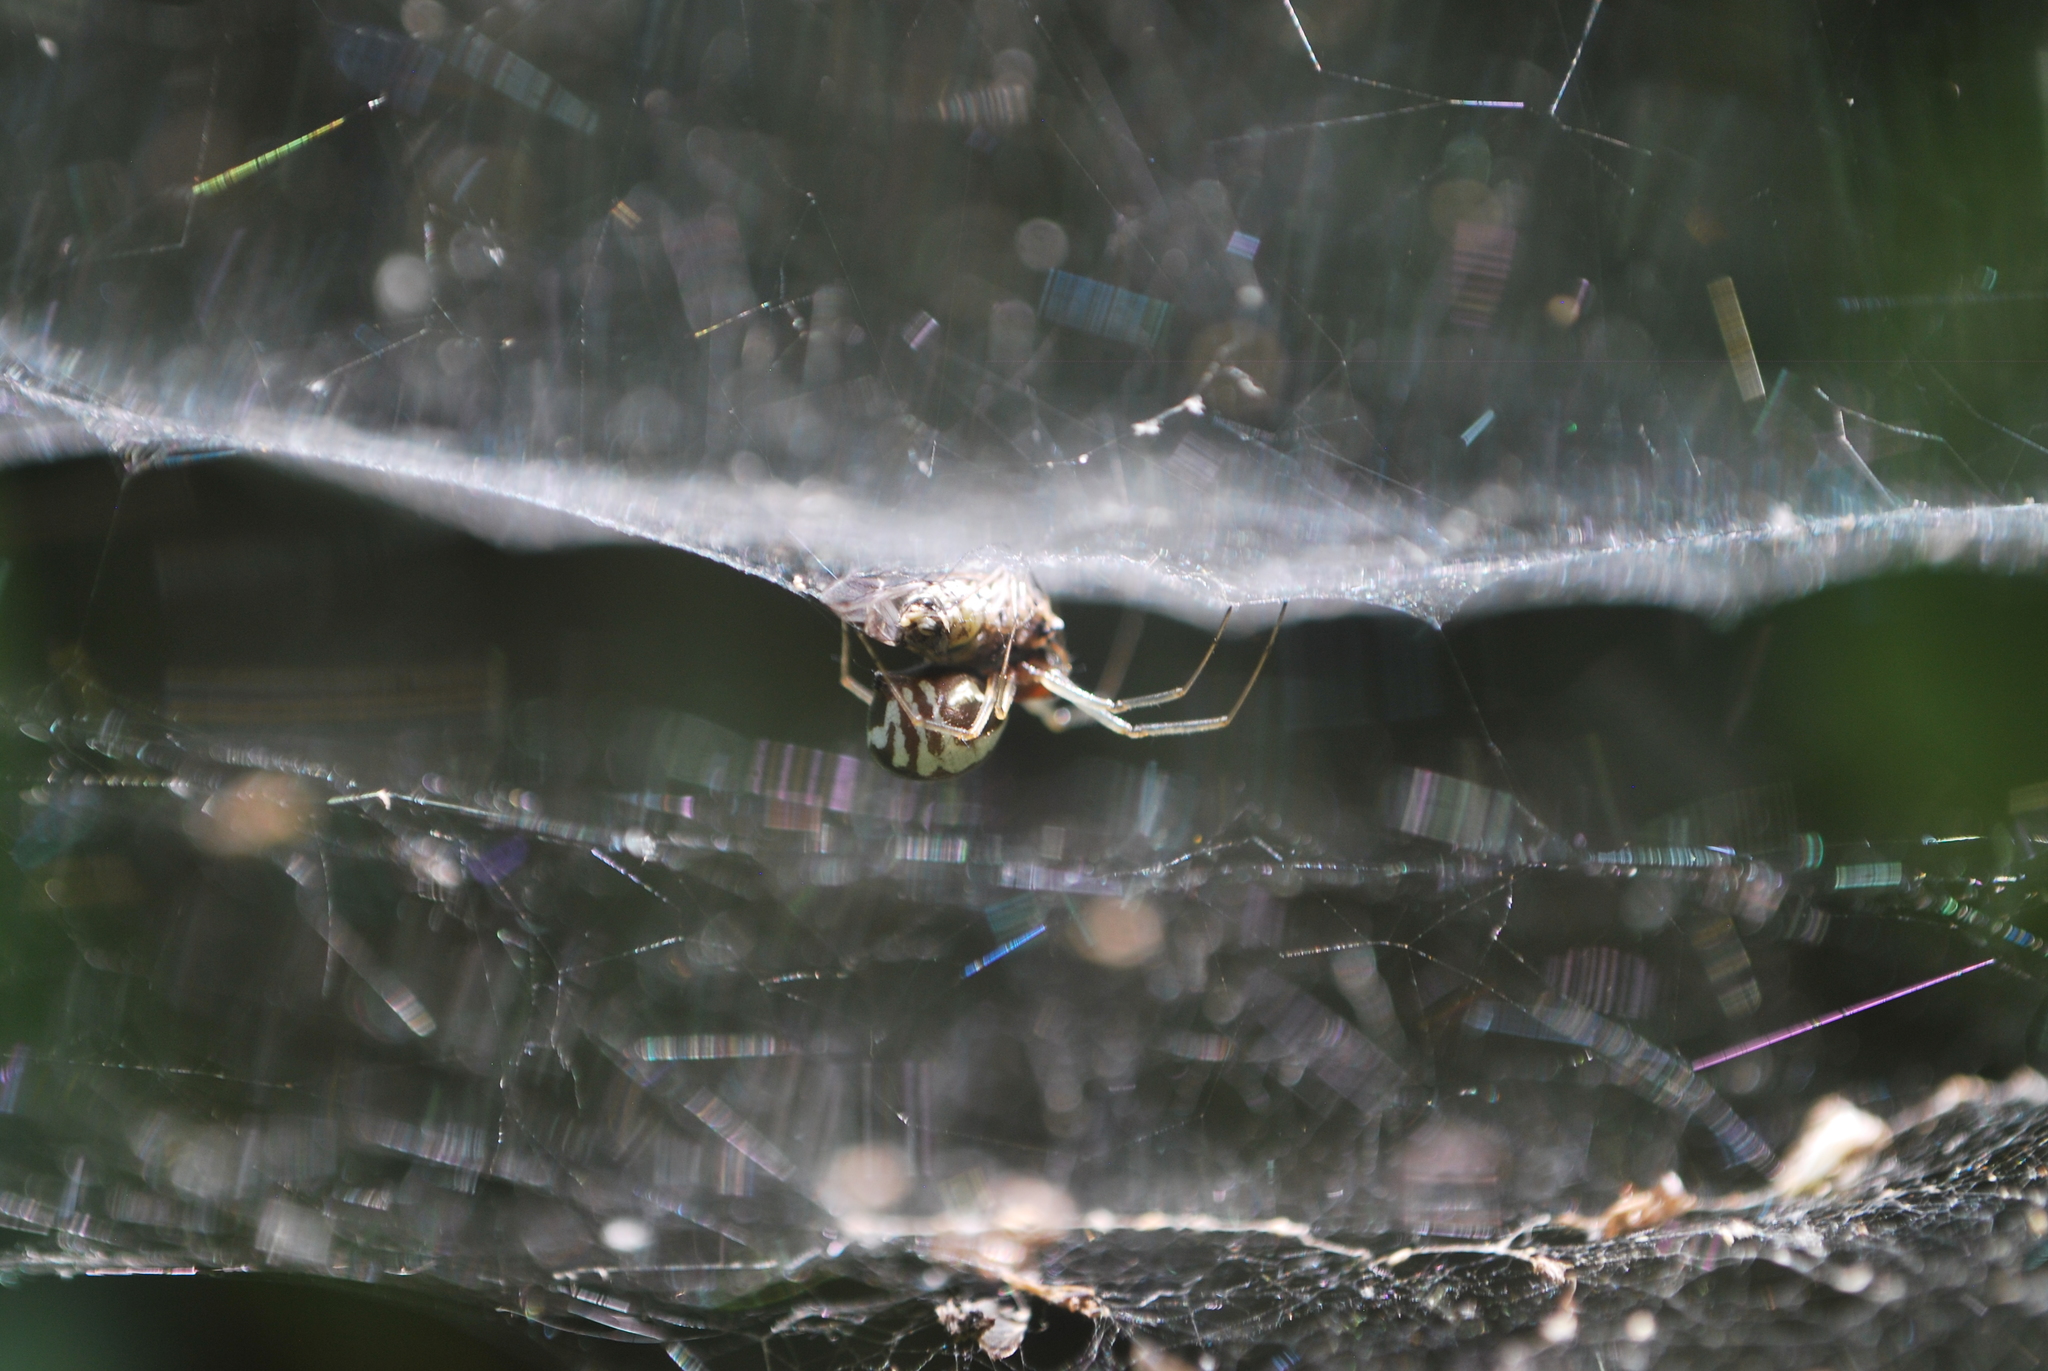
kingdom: Animalia
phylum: Arthropoda
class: Arachnida
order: Araneae
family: Linyphiidae
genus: Frontinella
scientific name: Frontinella pyramitela
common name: Bowl-and-doily spider
